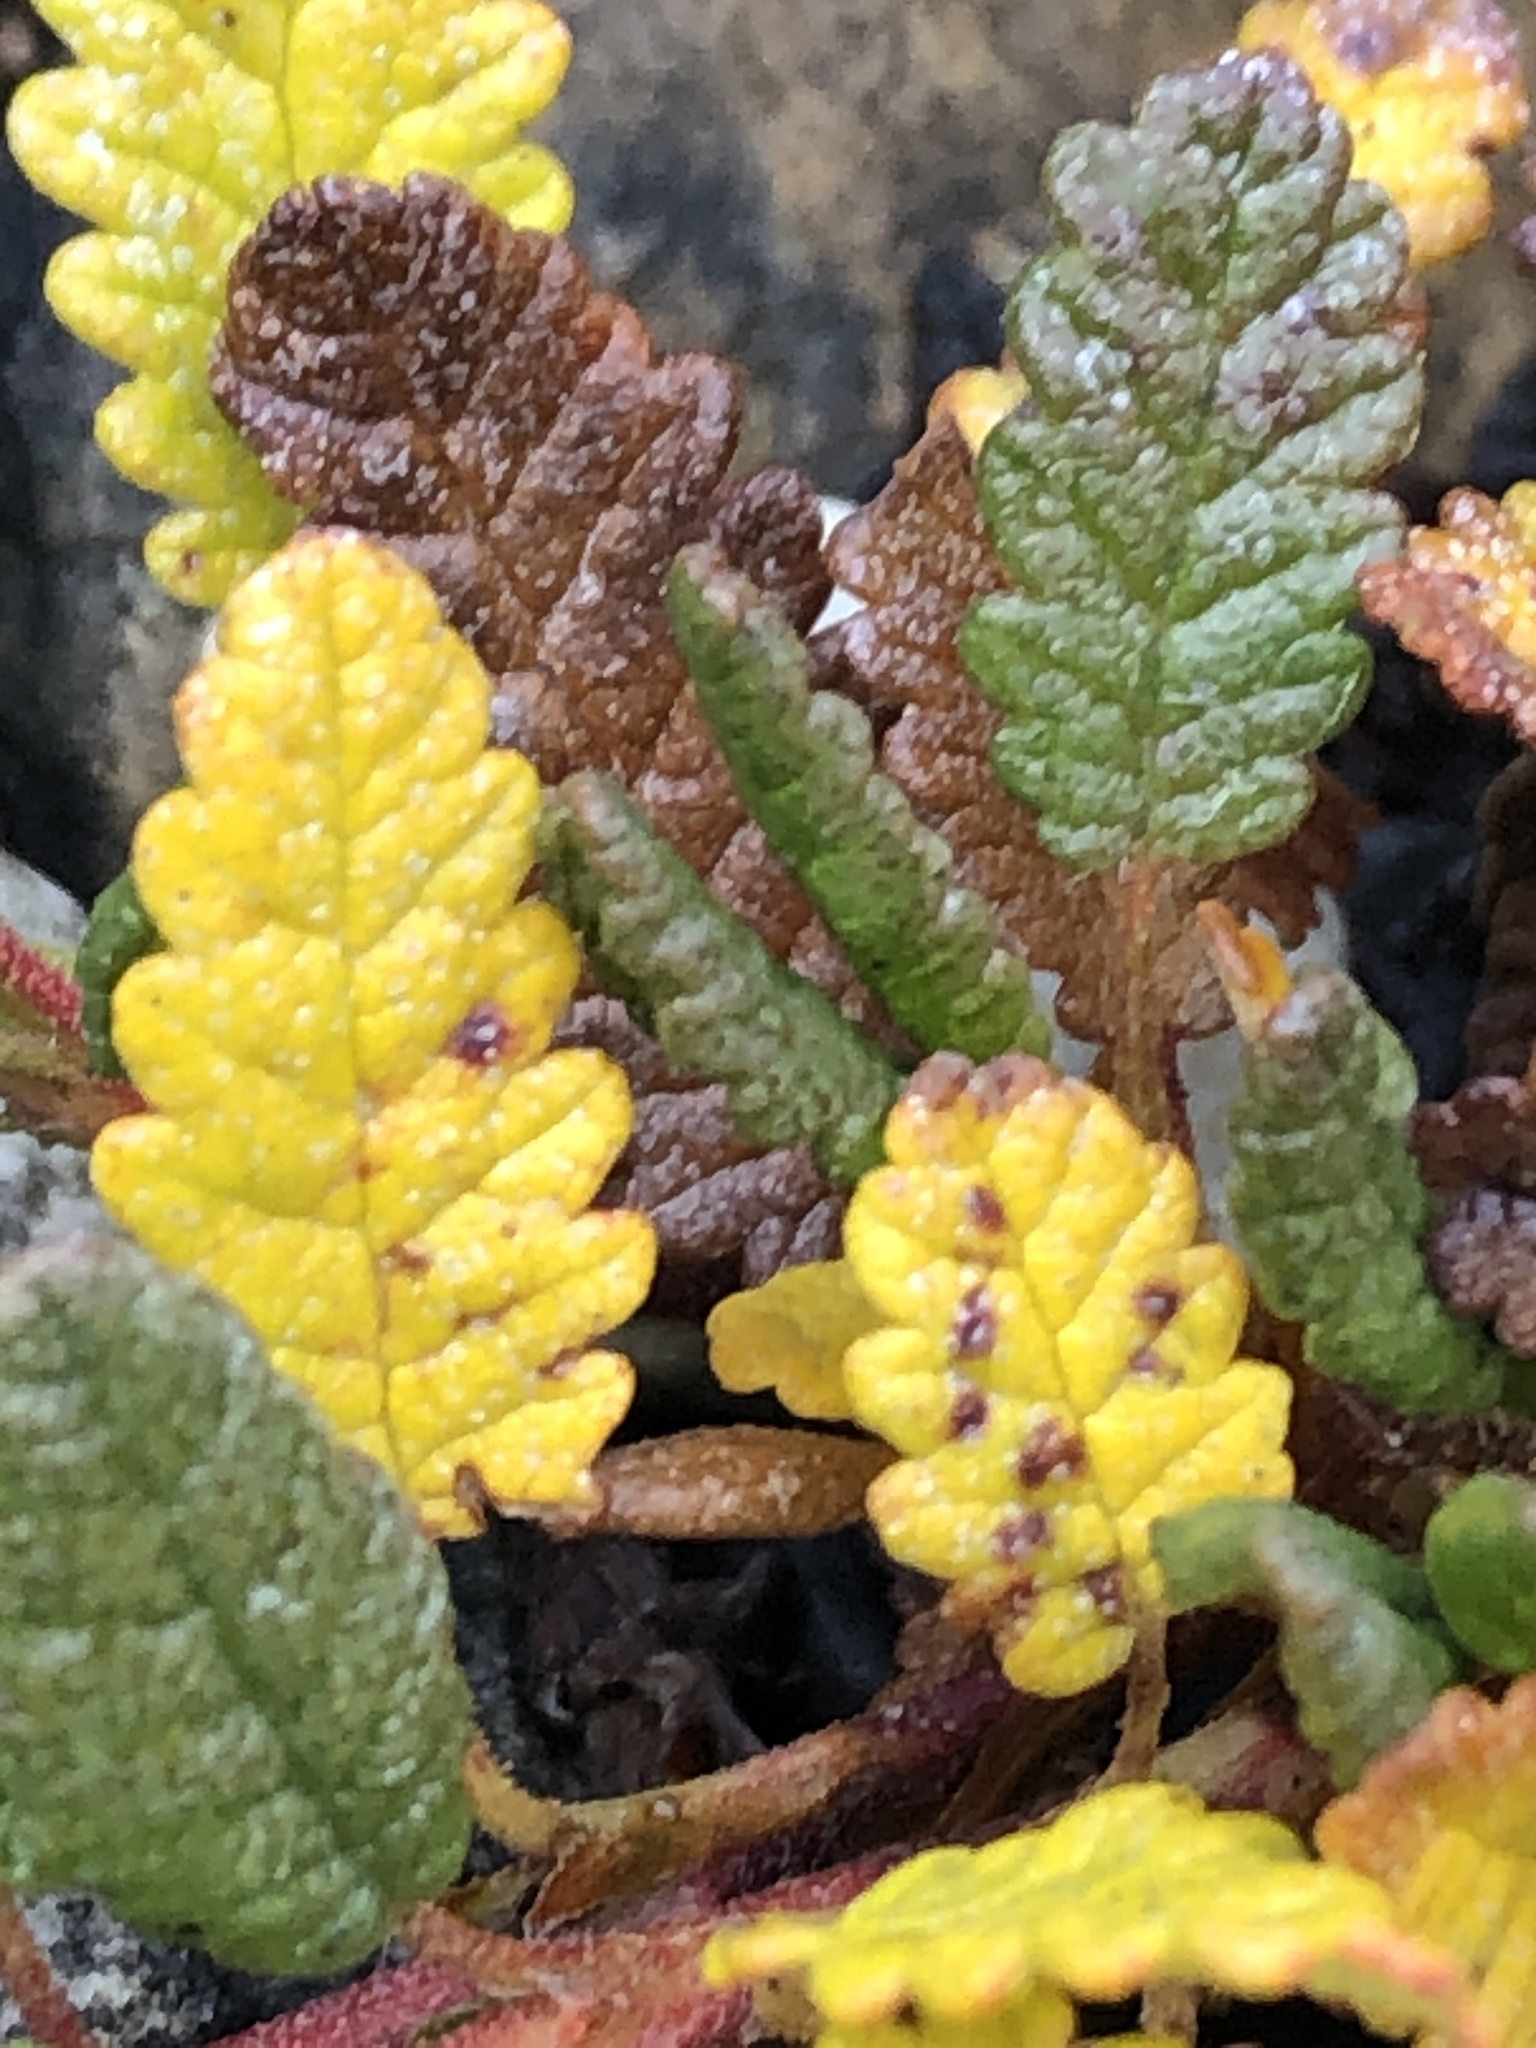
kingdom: Plantae
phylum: Tracheophyta
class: Magnoliopsida
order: Rosales
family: Rosaceae
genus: Dryas
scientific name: Dryas octopetala
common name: Eight-petal mountain-avens
